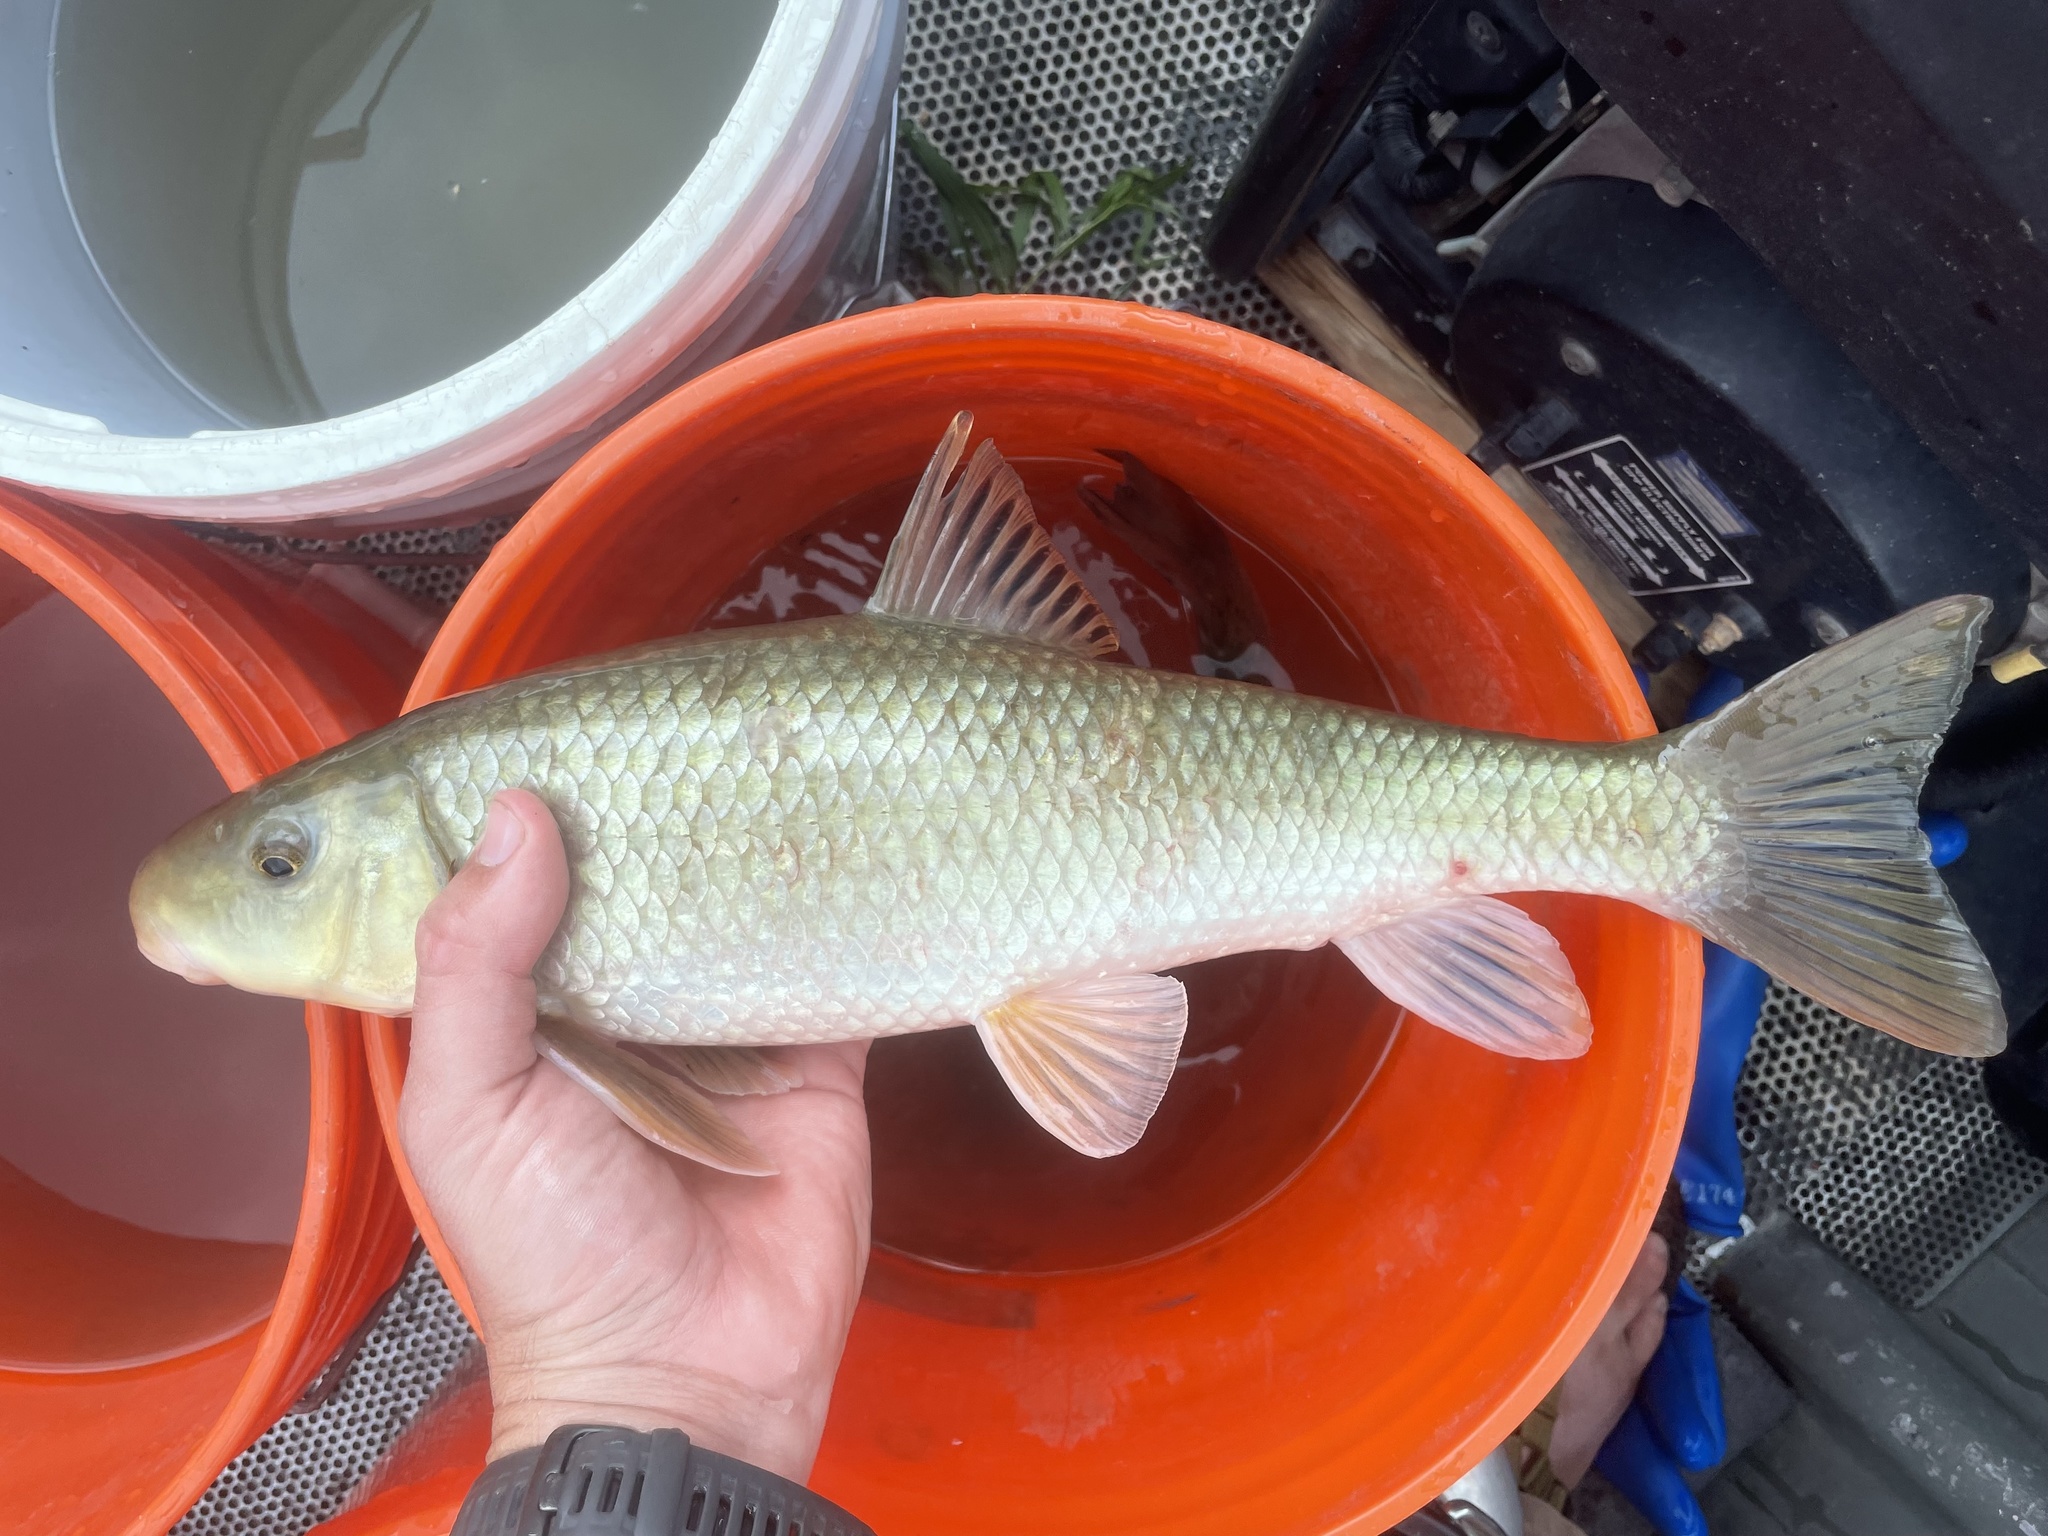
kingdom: Animalia
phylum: Chordata
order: Cypriniformes
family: Catostomidae
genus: Moxostoma
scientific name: Moxostoma congestum
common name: Gray redhorse
